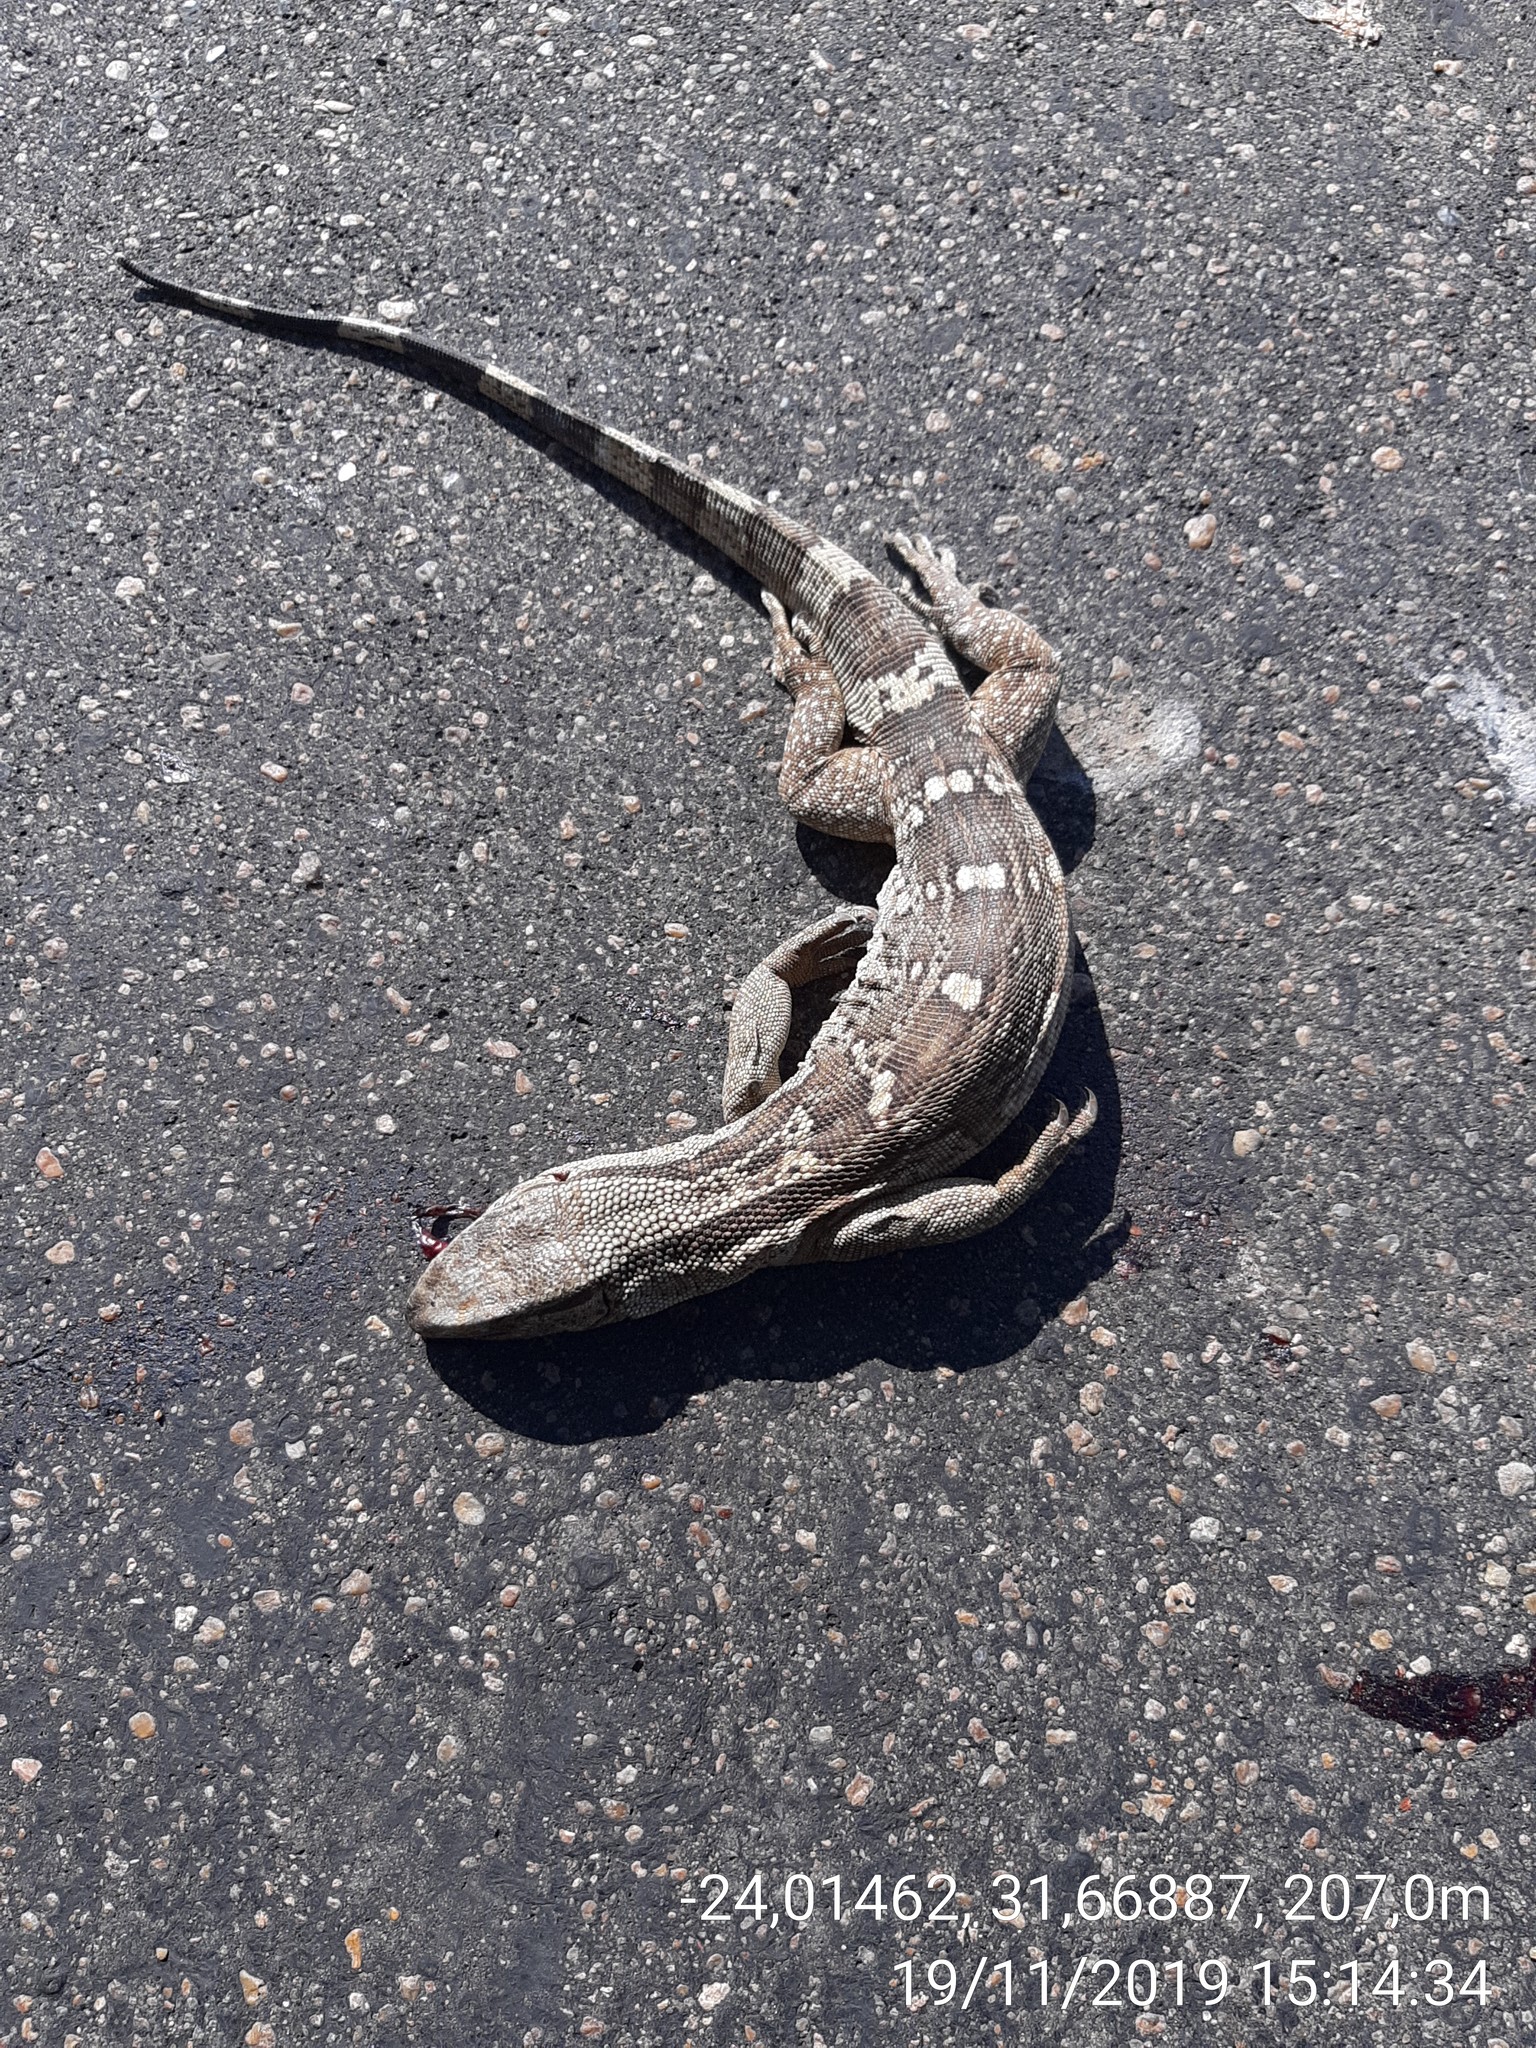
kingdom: Animalia
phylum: Chordata
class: Squamata
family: Varanidae
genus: Varanus
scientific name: Varanus albigularis
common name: White-throated monitor
